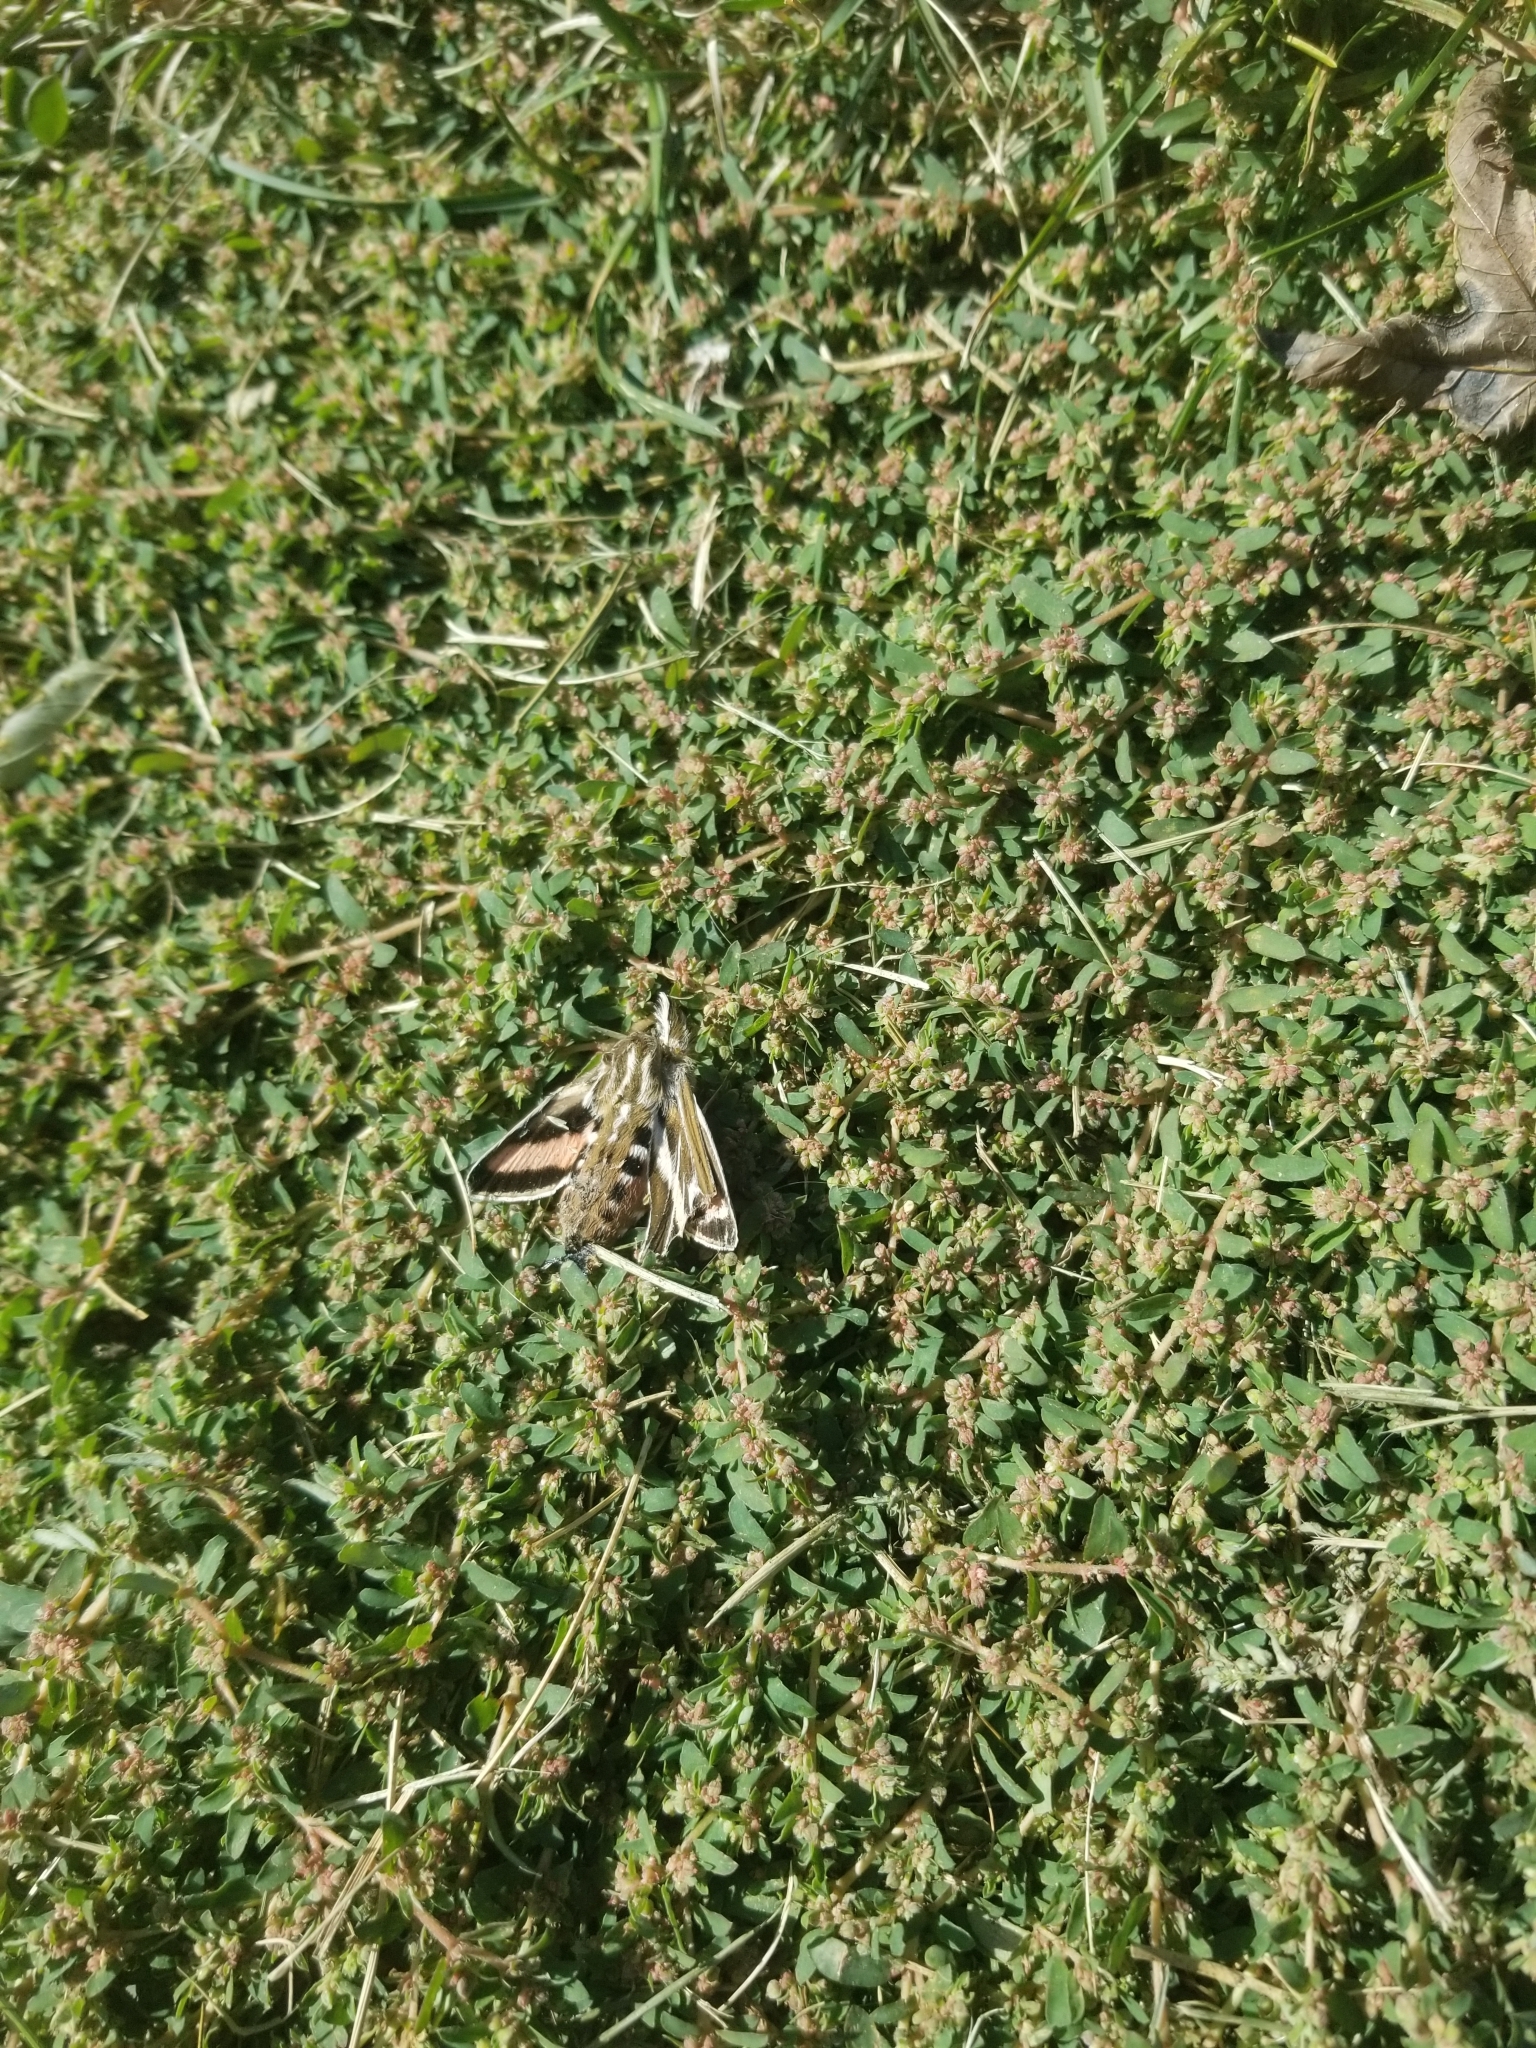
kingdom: Animalia
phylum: Arthropoda
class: Insecta
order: Lepidoptera
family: Sphingidae
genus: Hyles
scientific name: Hyles lineata
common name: White-lined sphinx
